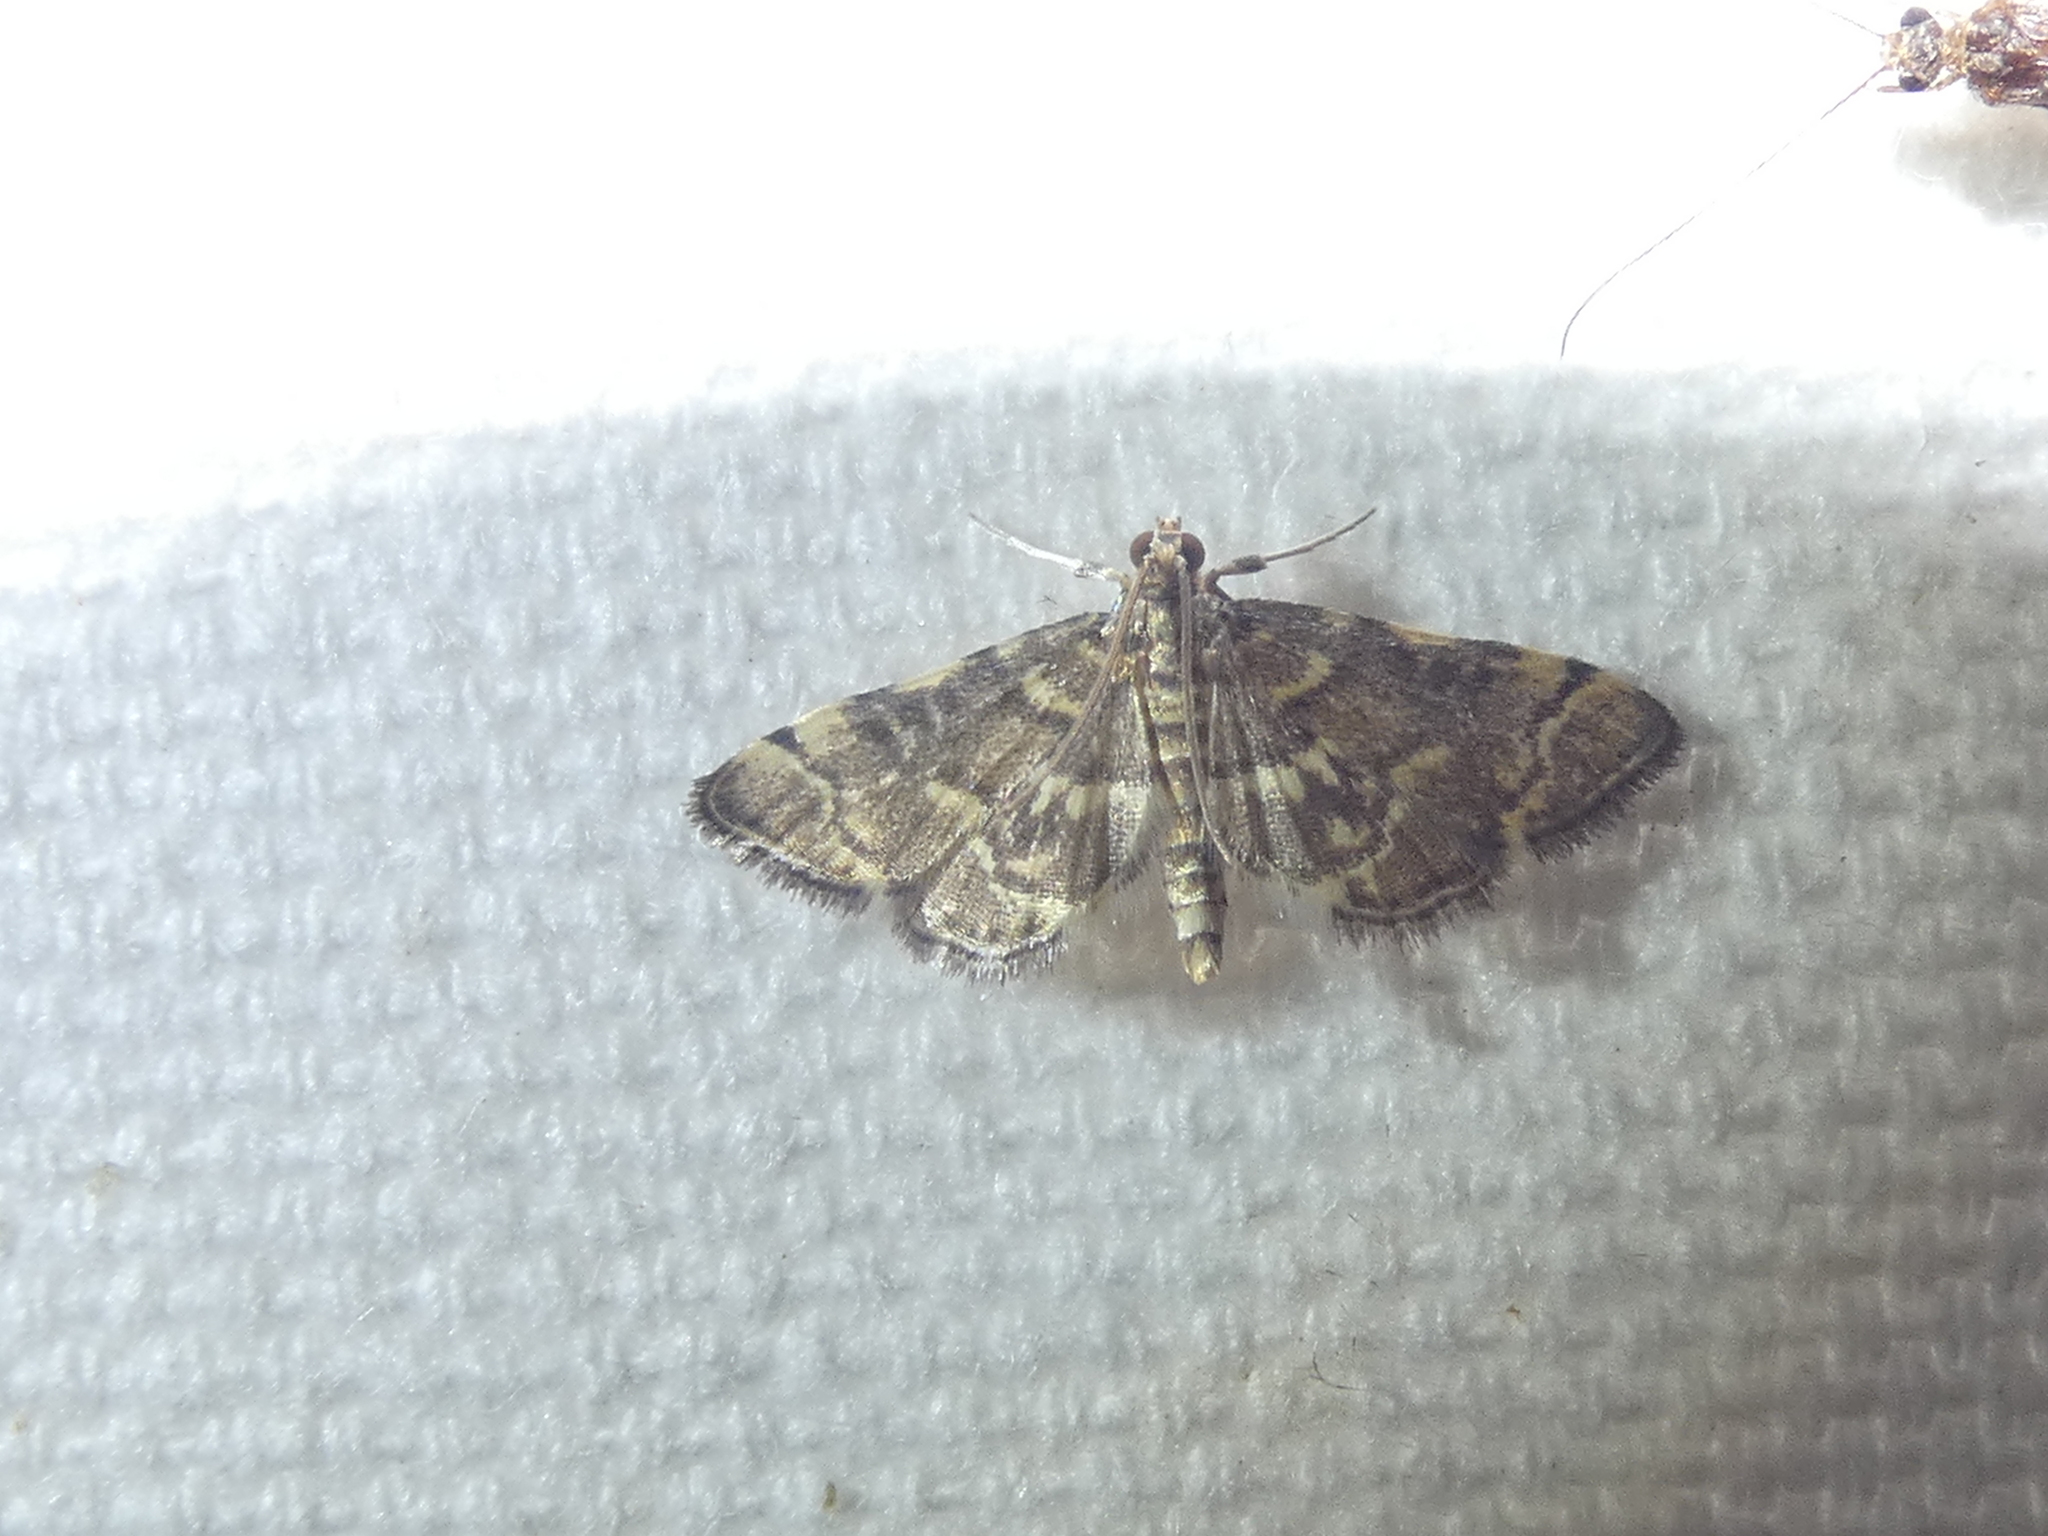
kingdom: Animalia
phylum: Arthropoda
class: Insecta
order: Lepidoptera
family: Crambidae
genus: Anageshna
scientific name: Anageshna primordialis
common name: Yellow-spotted webworm moth
